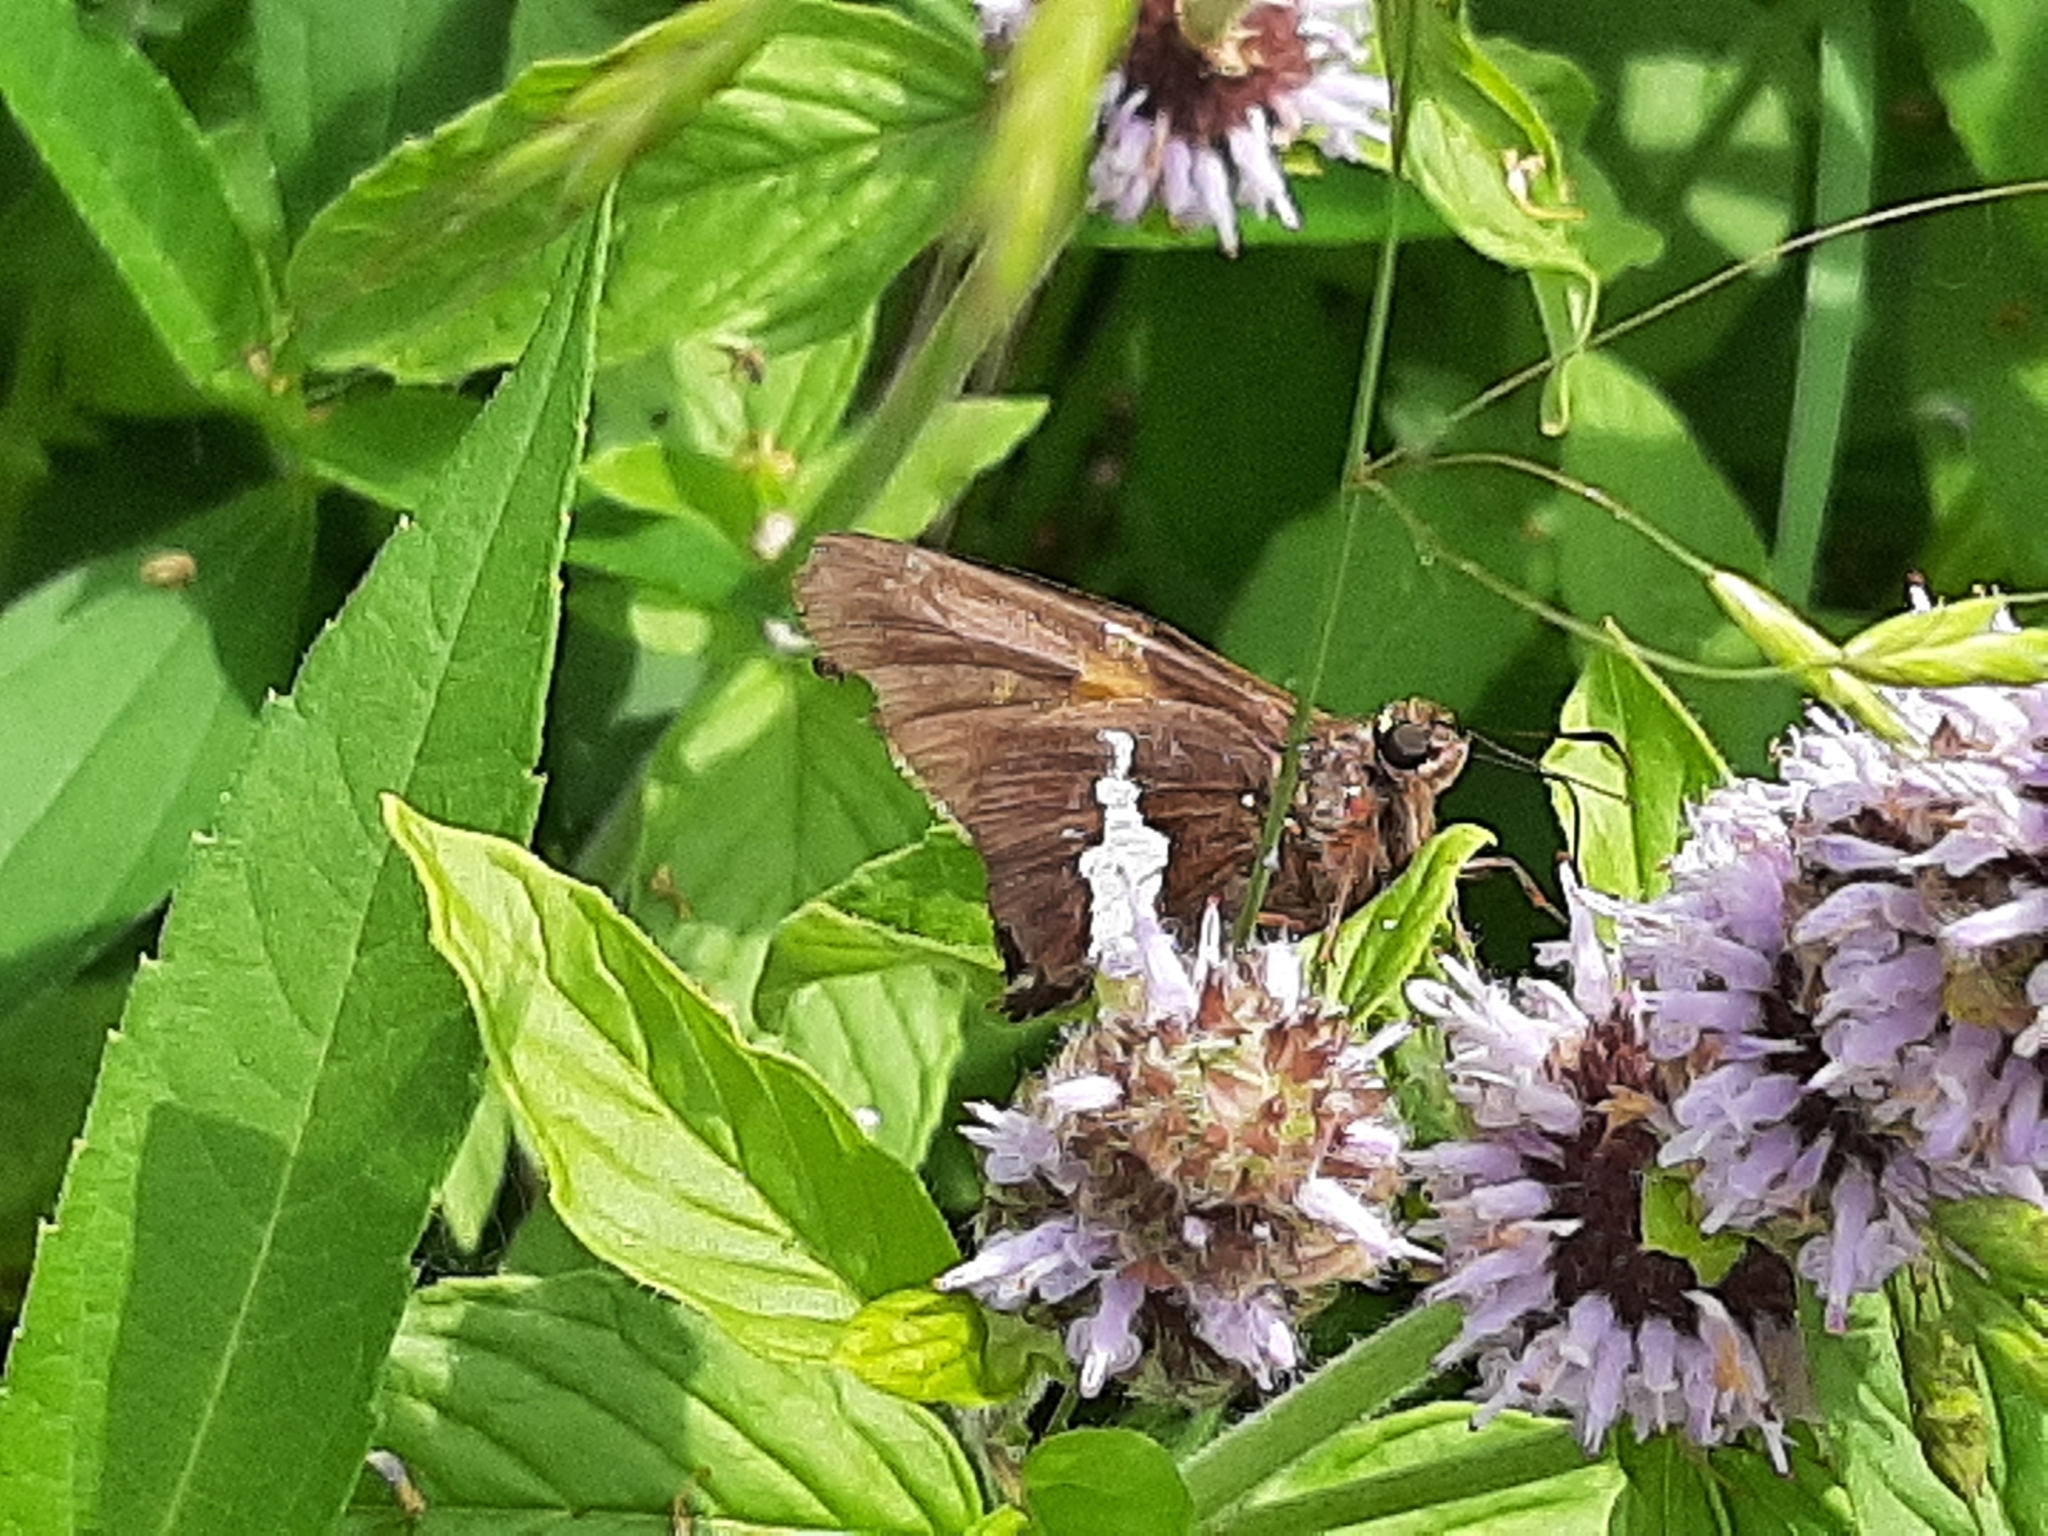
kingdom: Animalia
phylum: Arthropoda
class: Insecta
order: Lepidoptera
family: Hesperiidae
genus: Epargyreus
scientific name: Epargyreus clarus
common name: Silver-spotted skipper
